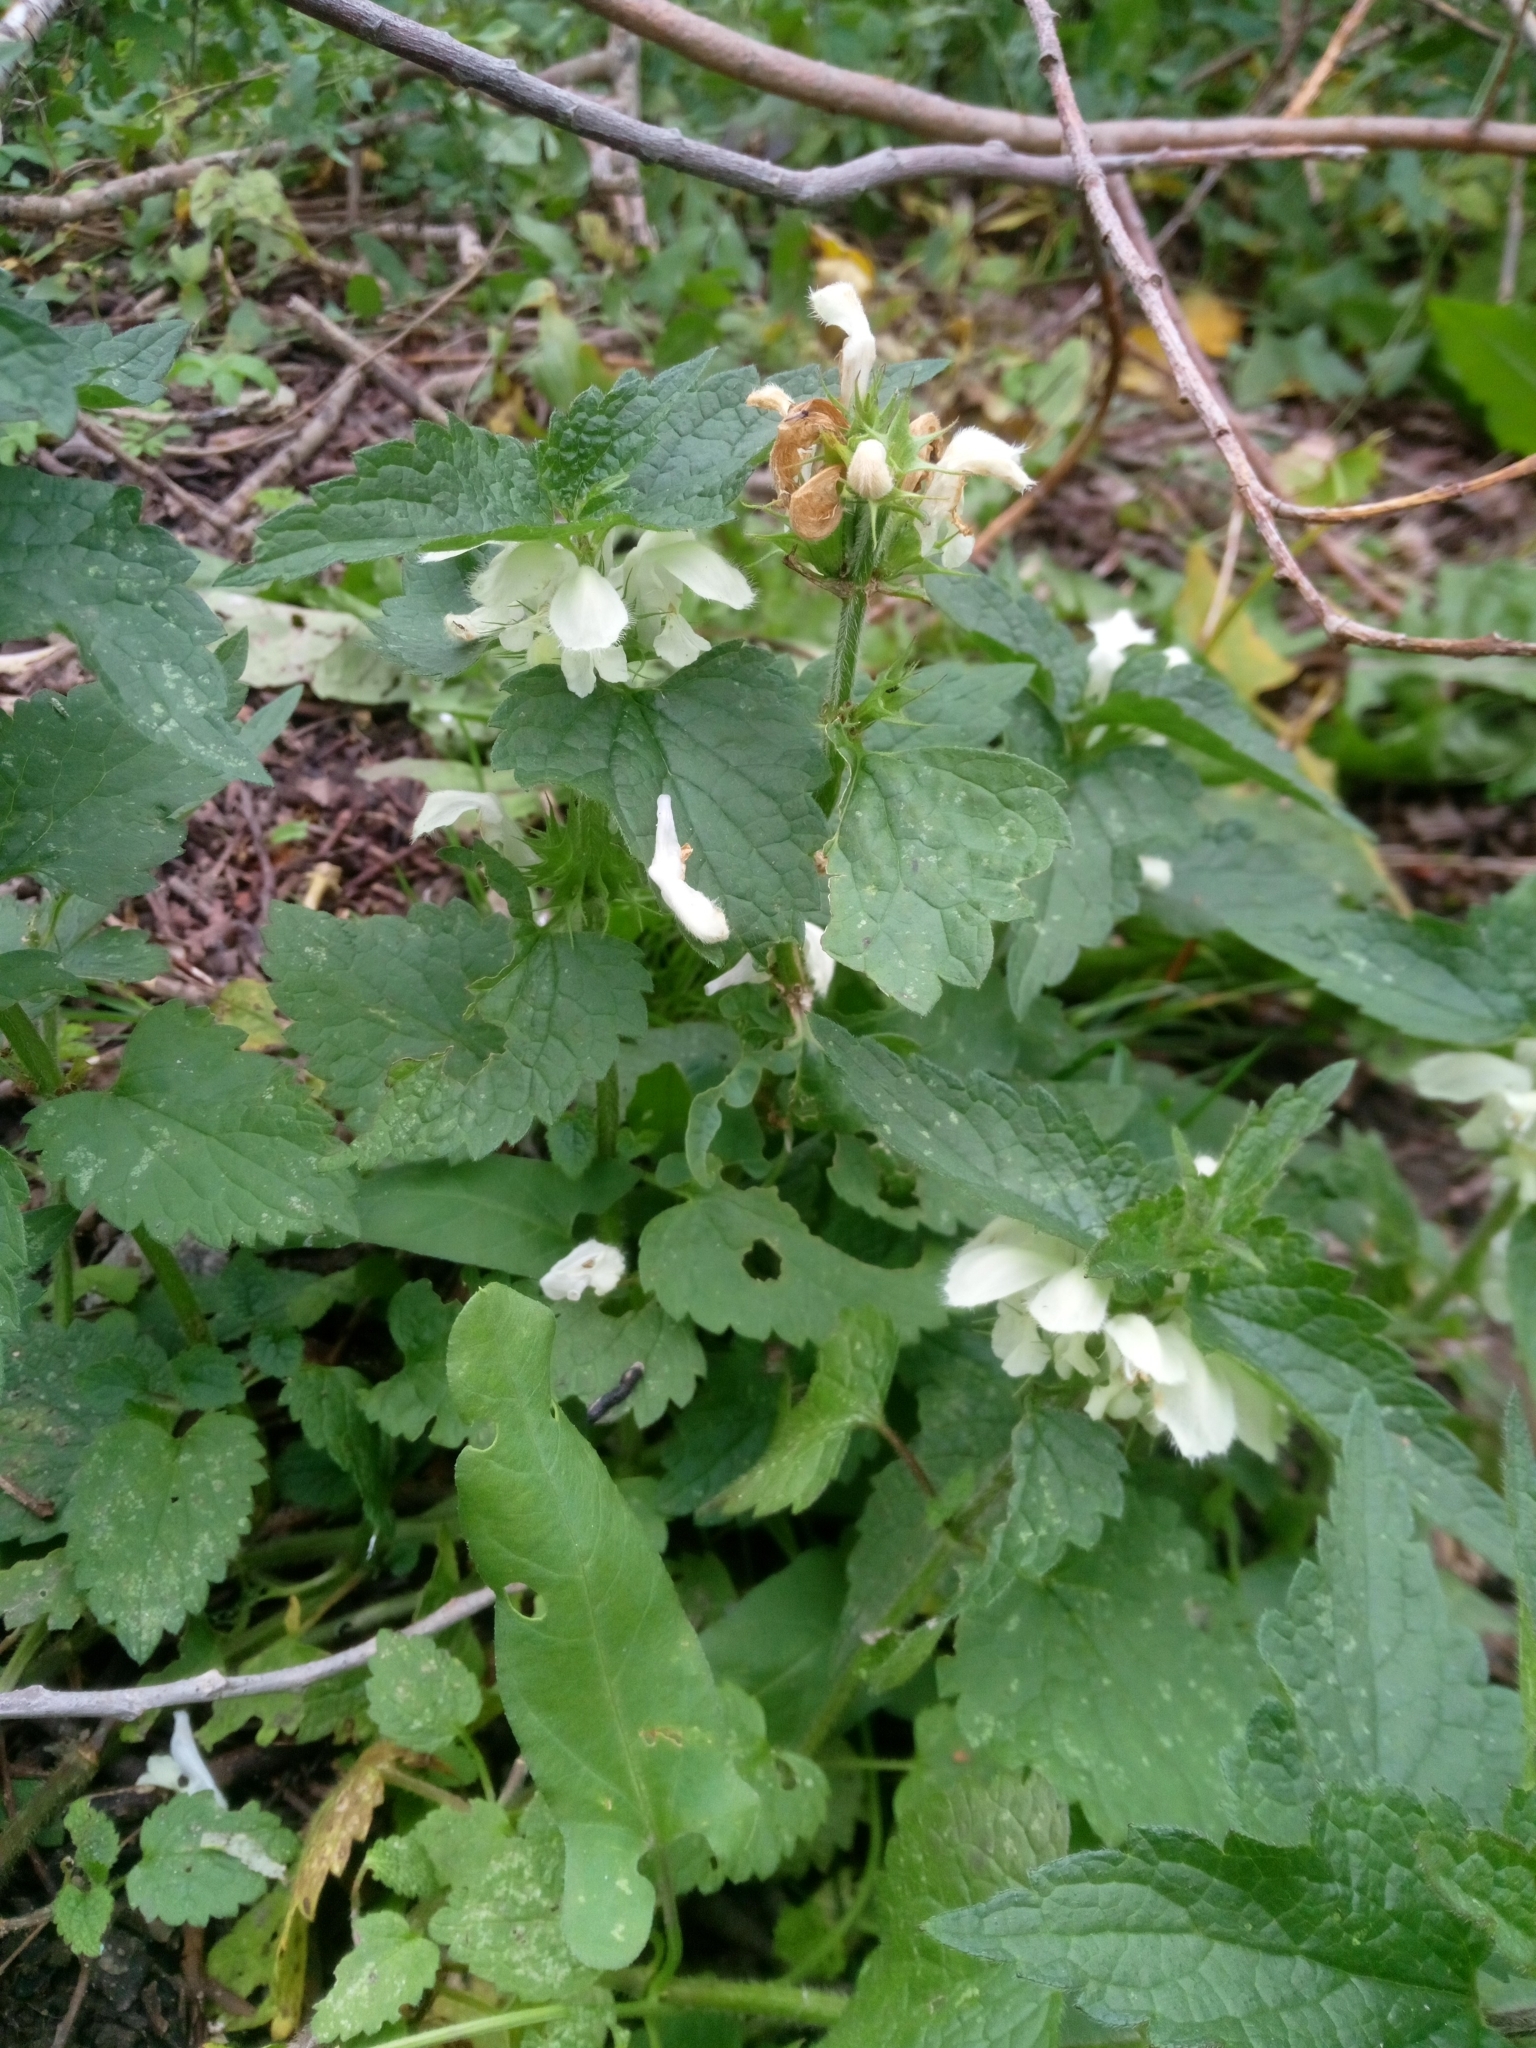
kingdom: Plantae
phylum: Tracheophyta
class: Magnoliopsida
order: Lamiales
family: Lamiaceae
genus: Lamium
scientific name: Lamium album
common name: White dead-nettle
